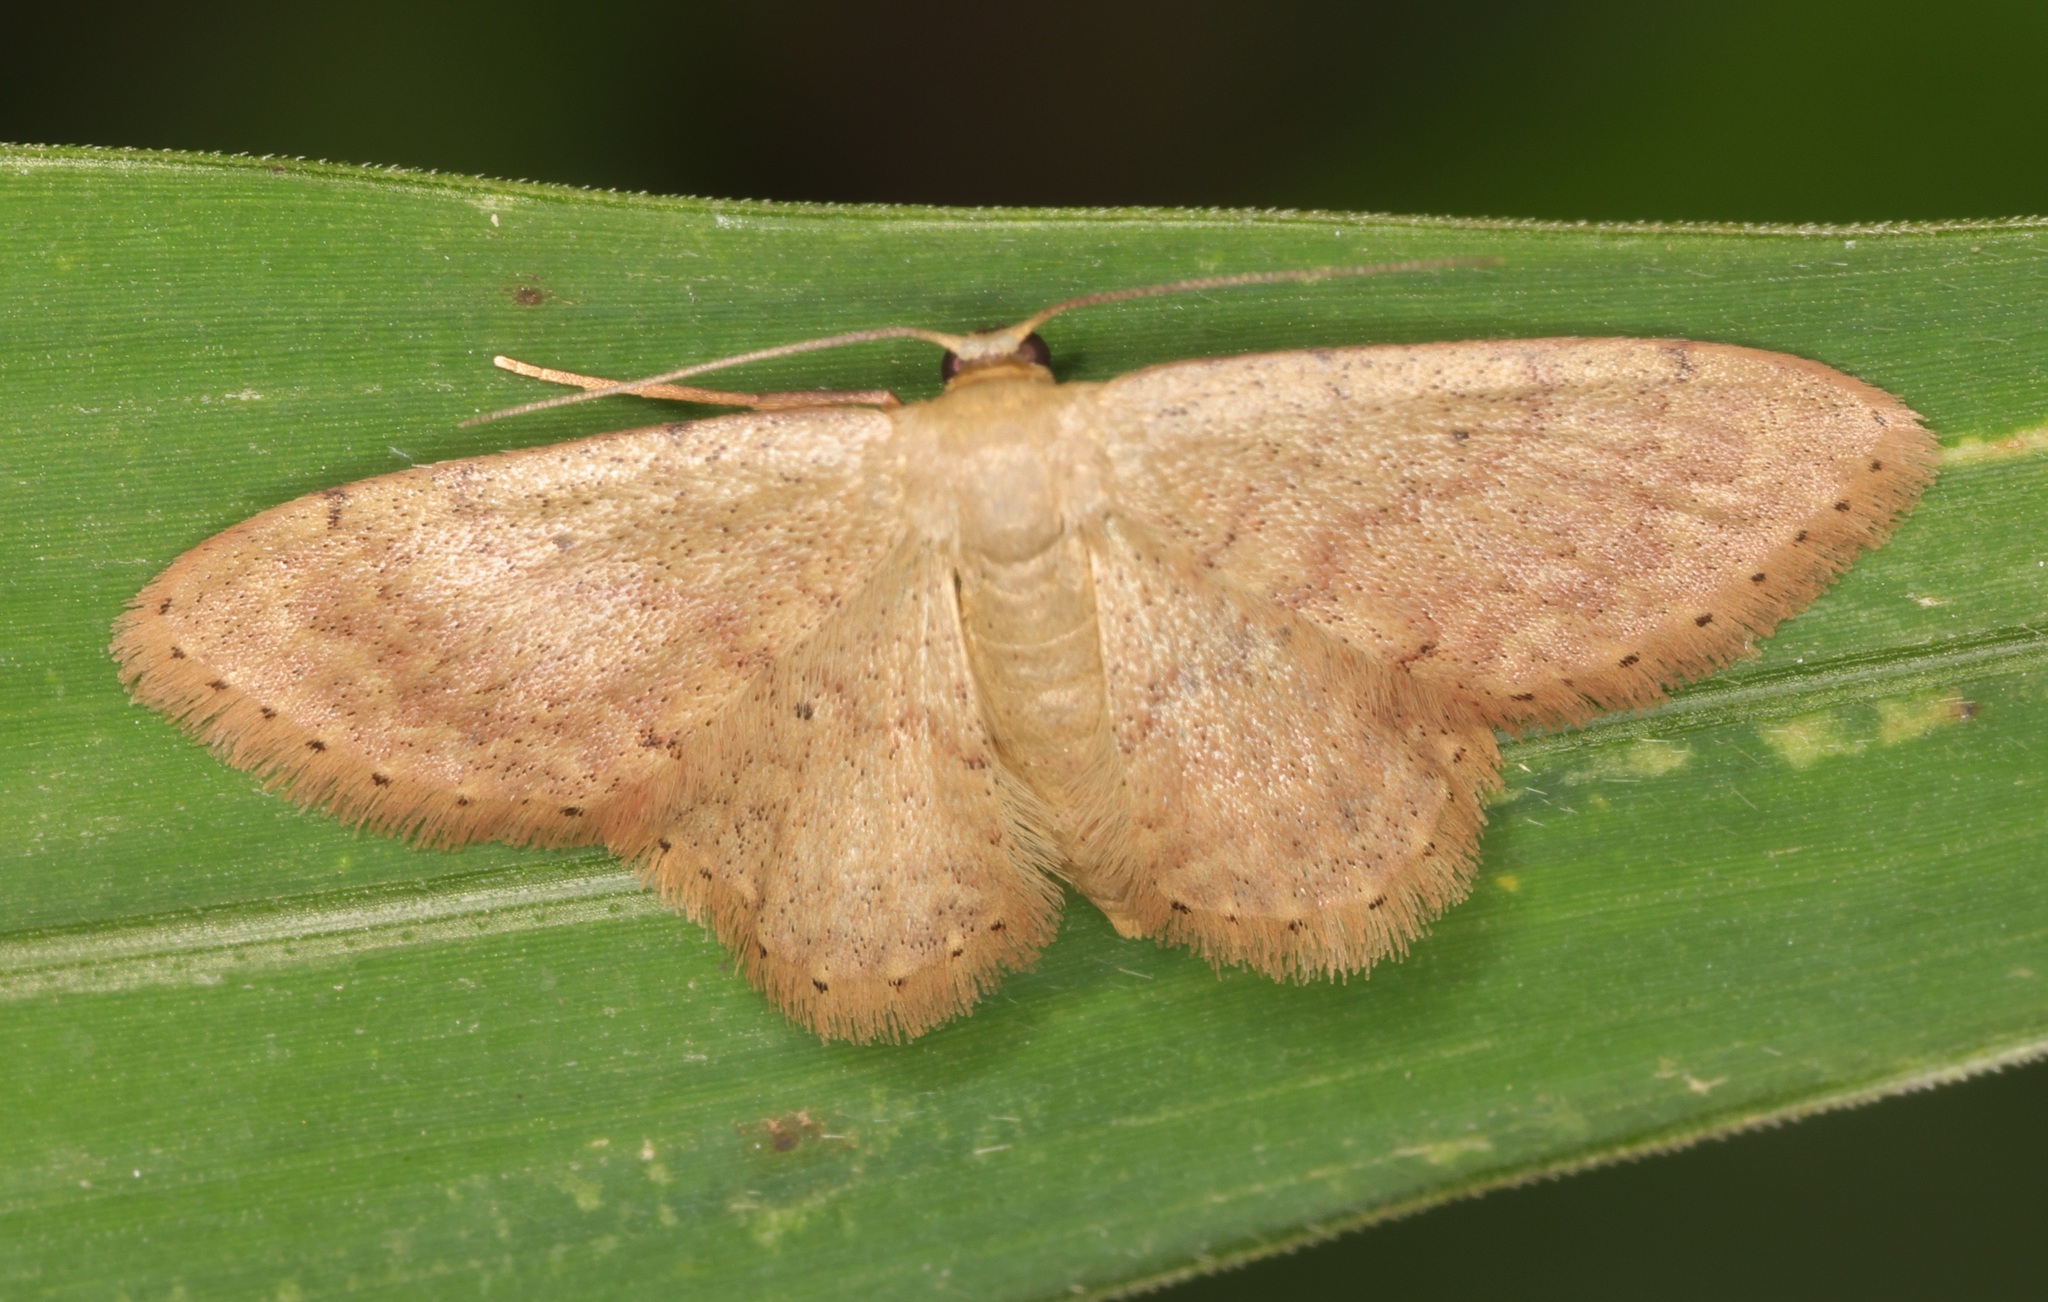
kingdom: Animalia
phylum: Arthropoda
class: Insecta
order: Lepidoptera
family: Geometridae
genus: Idaea
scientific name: Idaea trisetata
